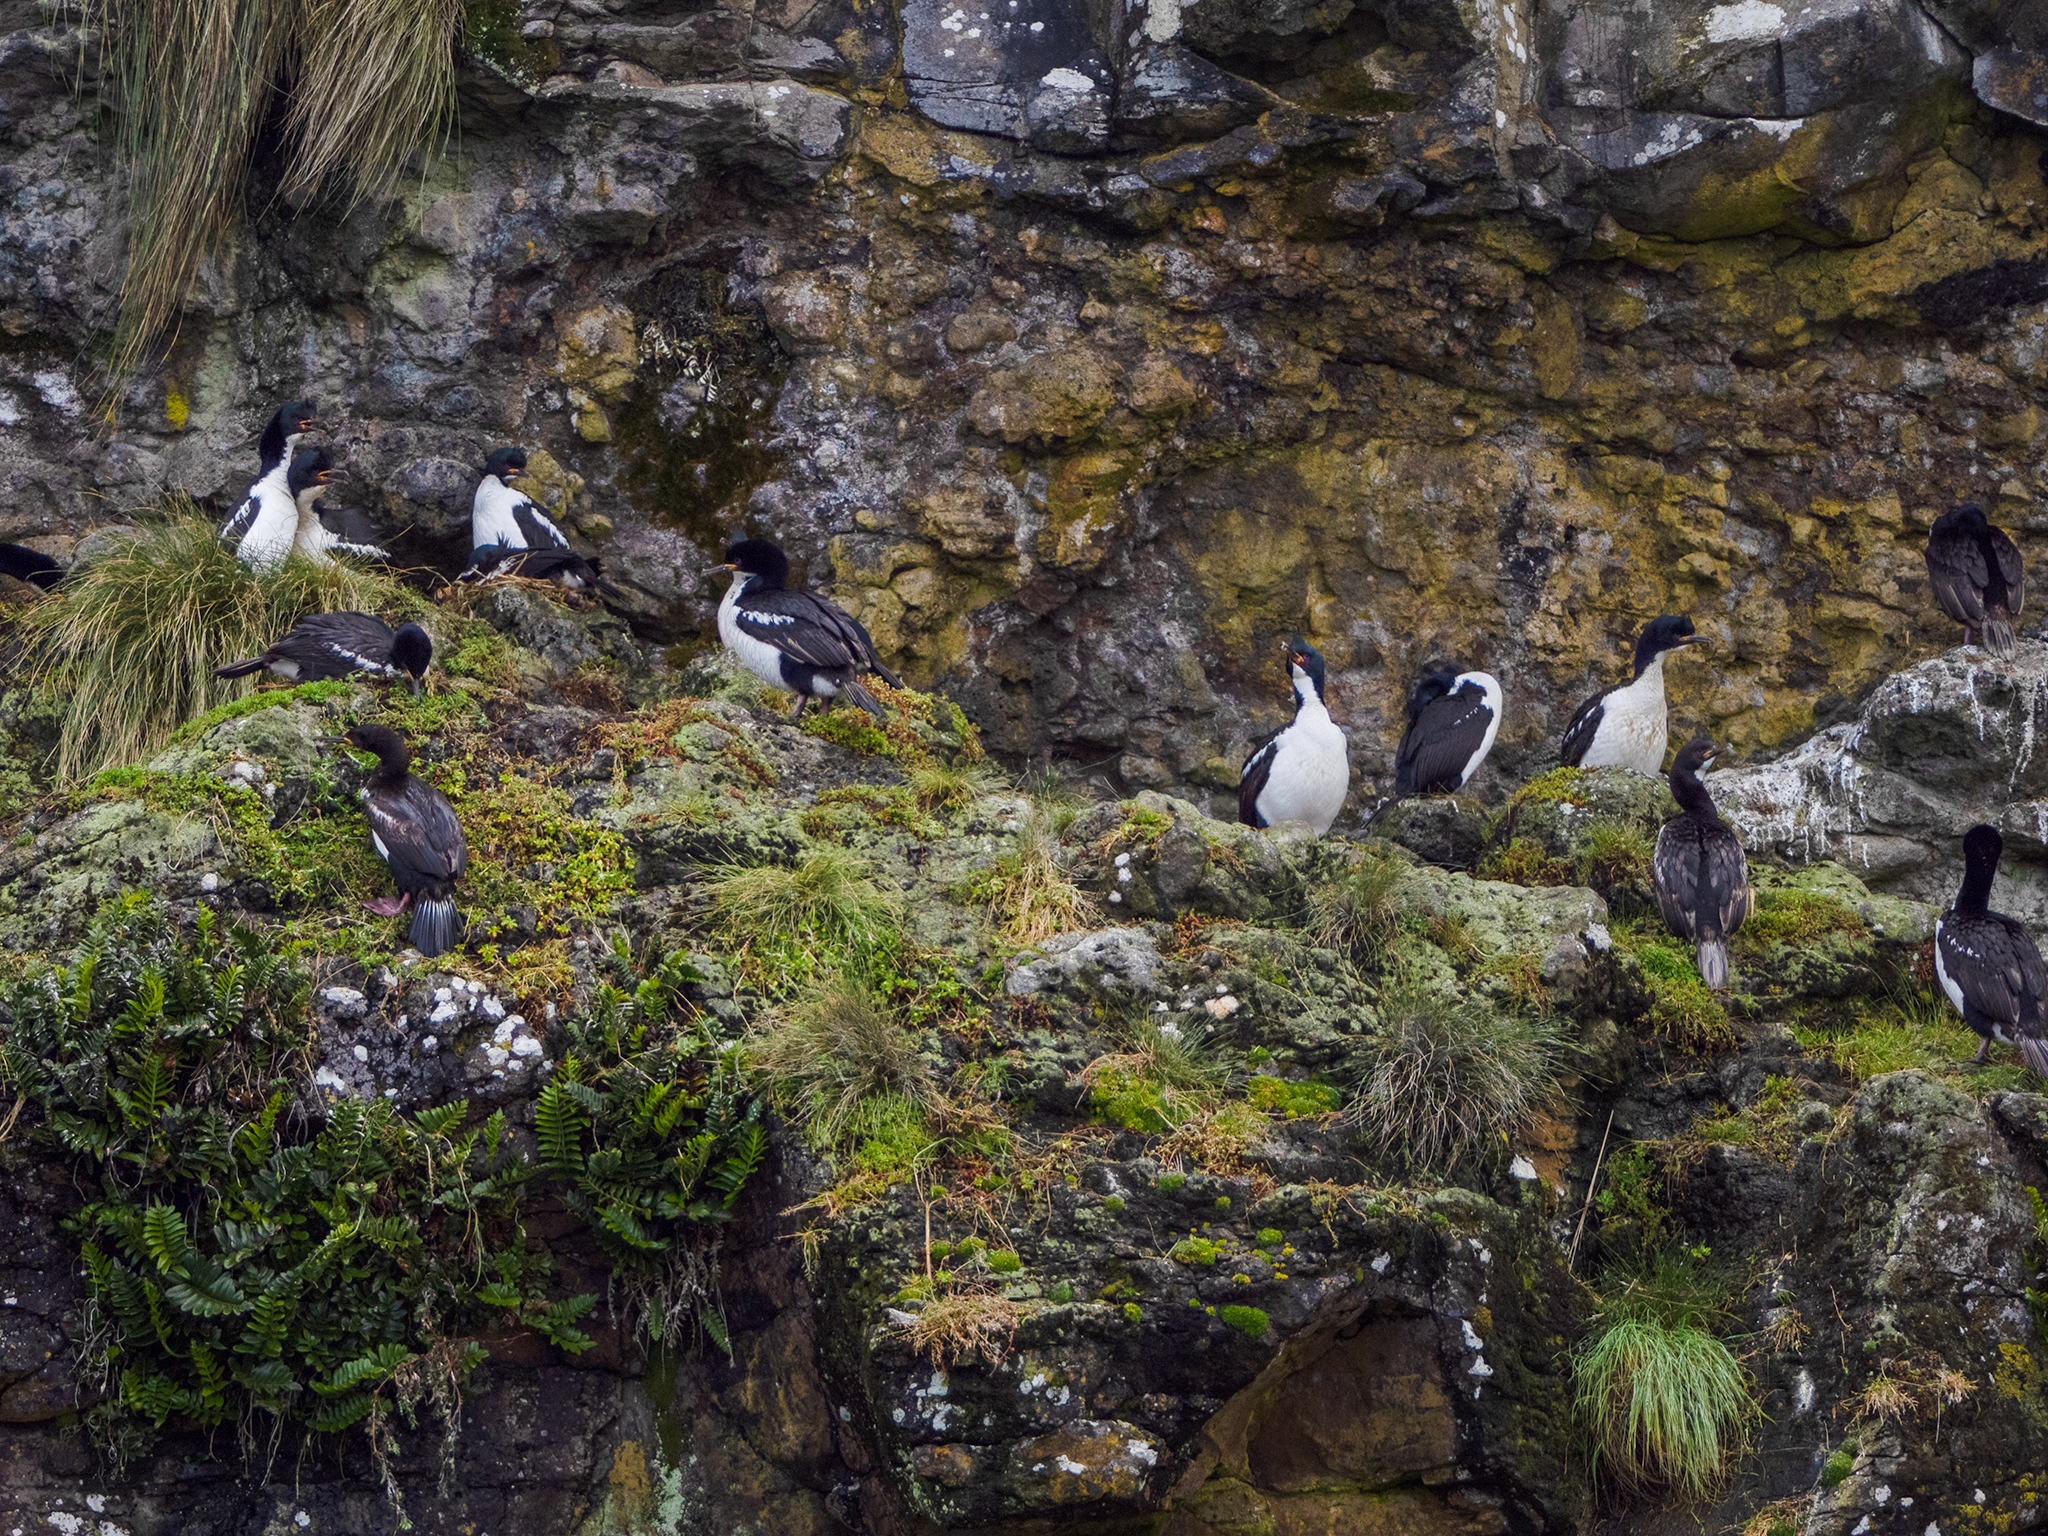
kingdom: Animalia
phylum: Chordata
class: Aves
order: Suliformes
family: Phalacrocoracidae
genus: Leucocarbo
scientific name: Leucocarbo colensoi
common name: Auckland shag
